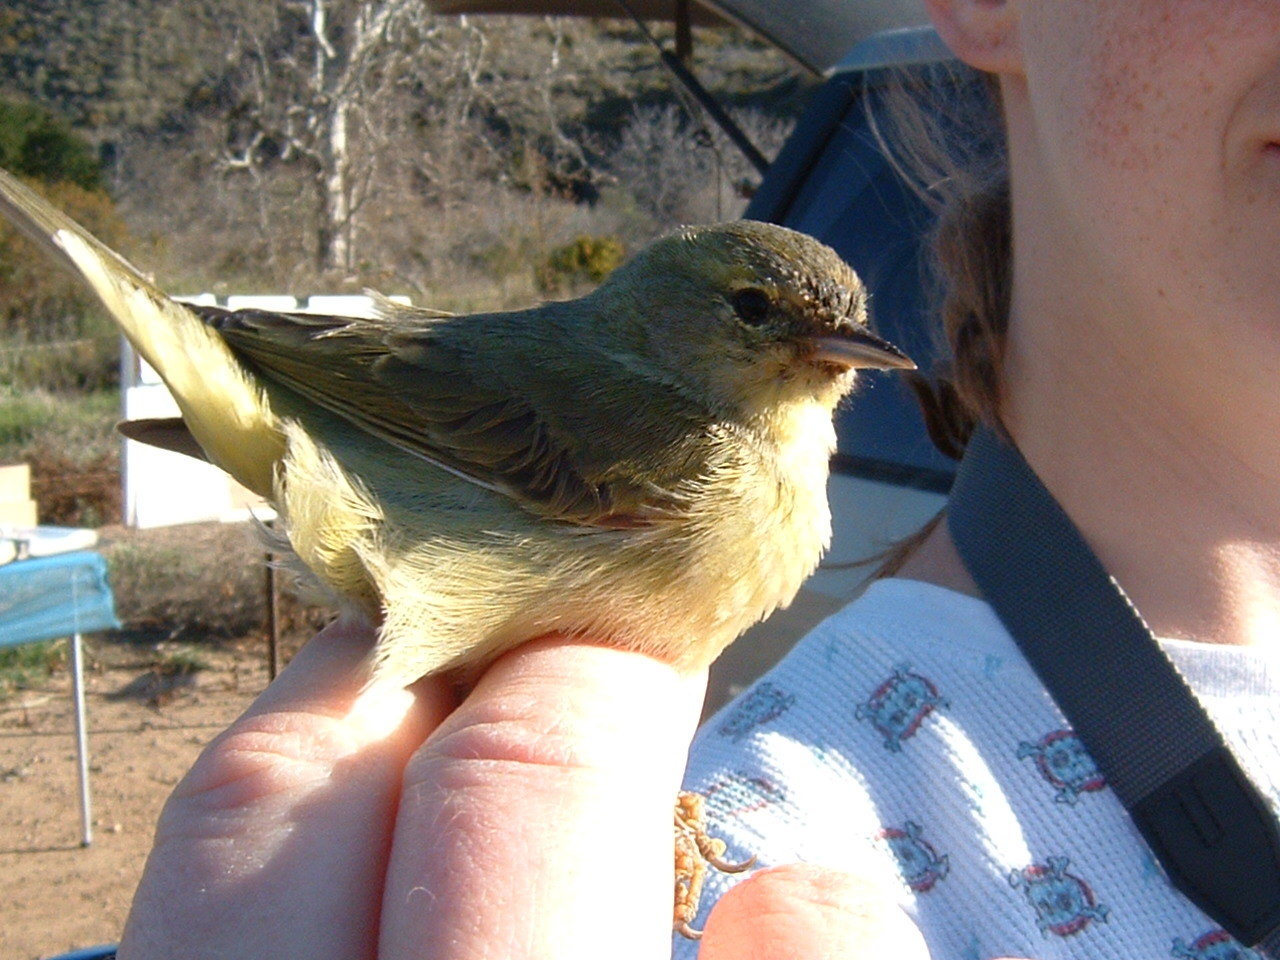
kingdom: Animalia
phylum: Chordata
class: Aves
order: Passeriformes
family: Parulidae
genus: Leiothlypis
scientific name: Leiothlypis celata
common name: Orange-crowned warbler
